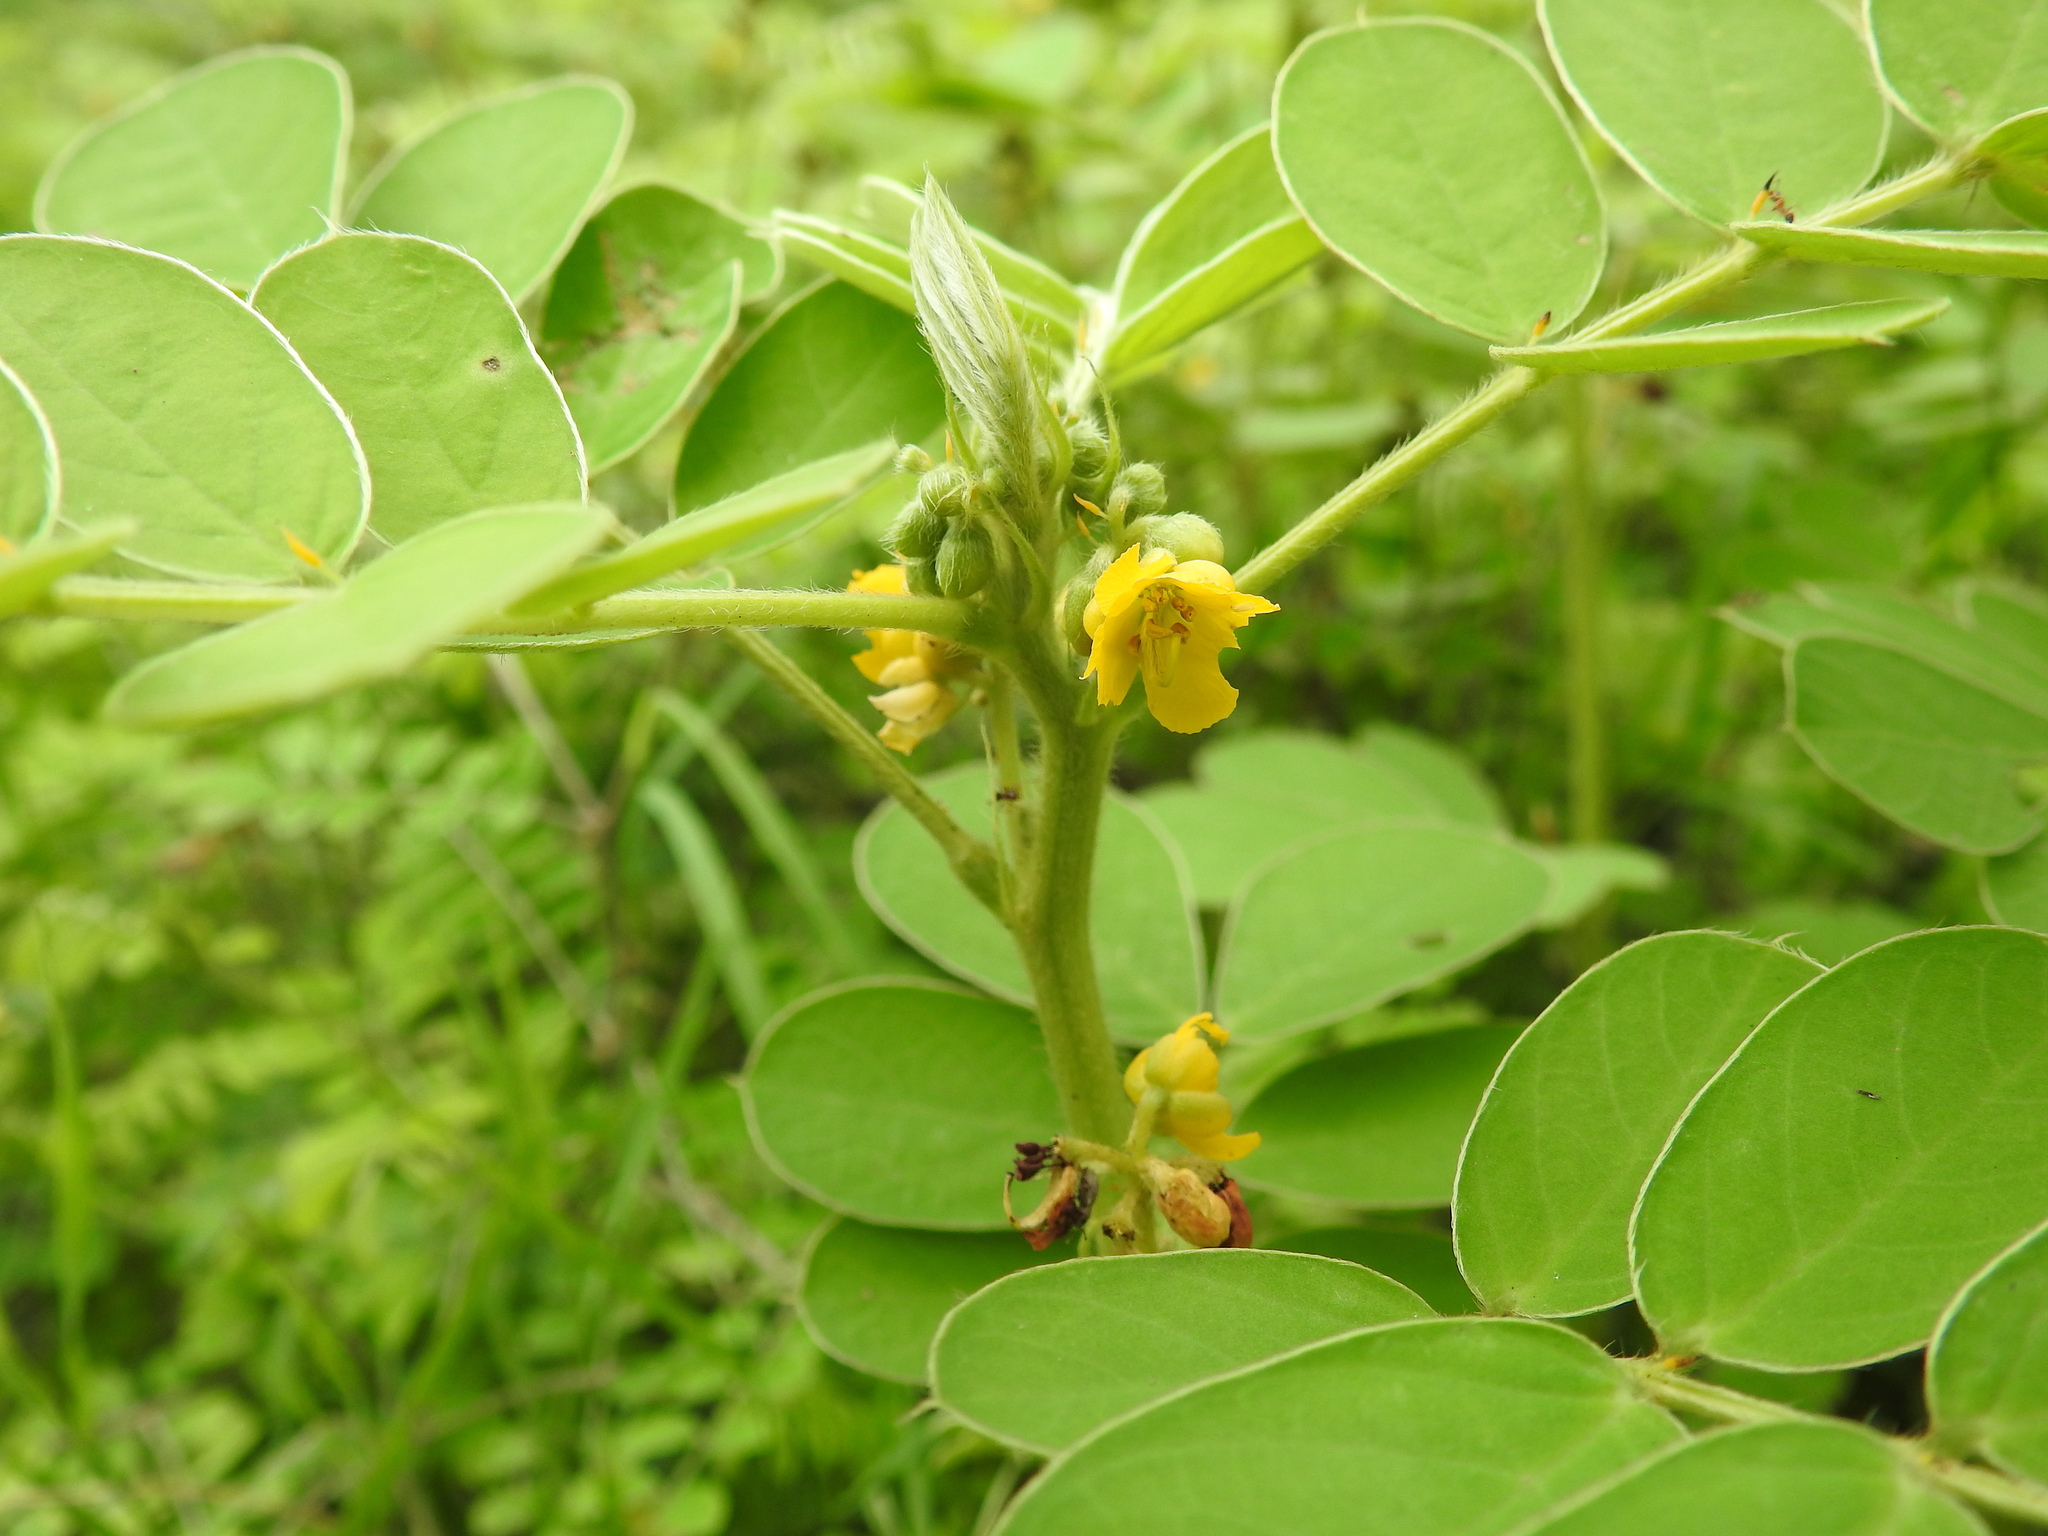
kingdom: Plantae
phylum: Tracheophyta
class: Magnoliopsida
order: Fabales
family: Fabaceae
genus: Senna
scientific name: Senna uniflora
